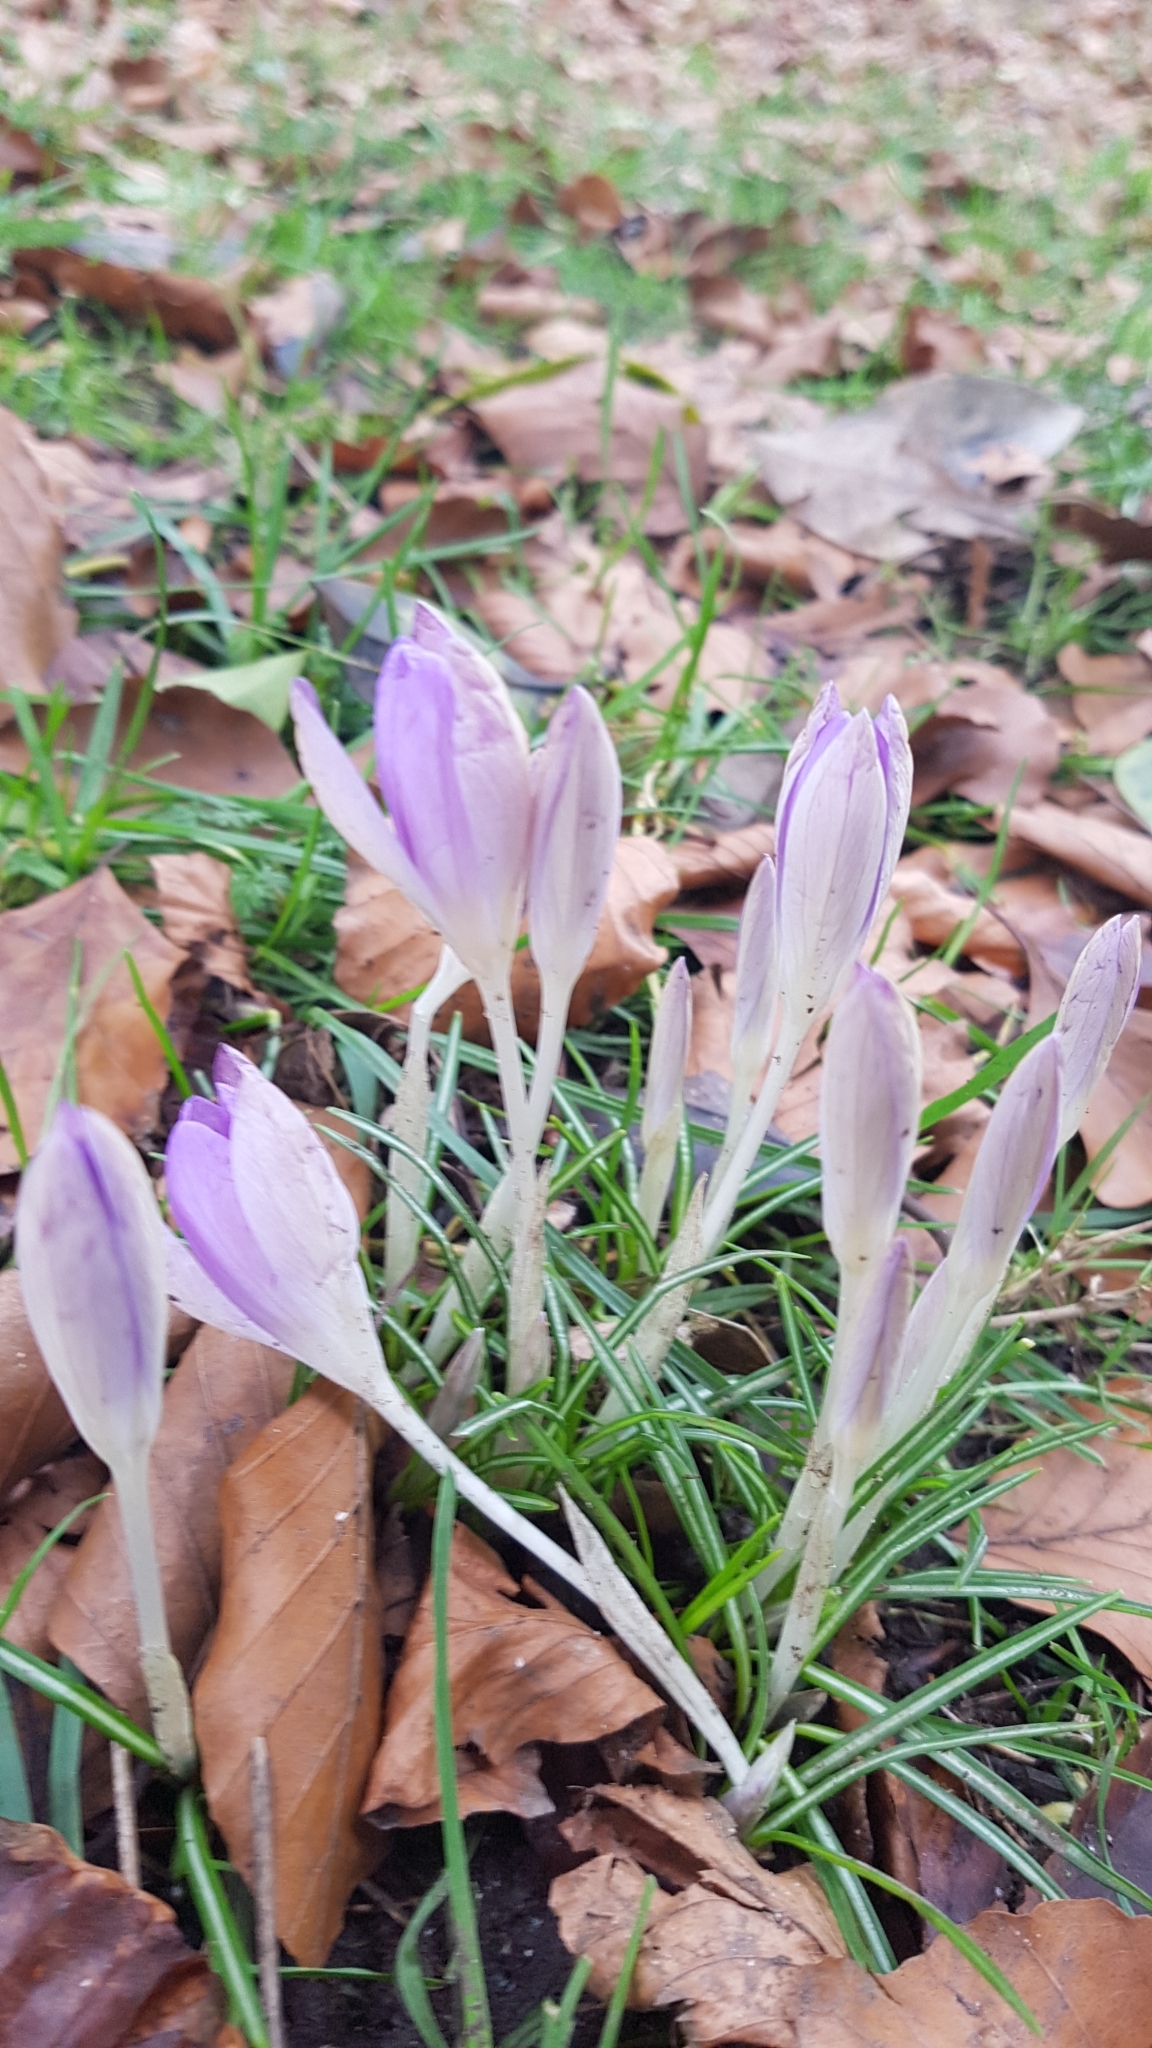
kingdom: Plantae
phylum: Tracheophyta
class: Liliopsida
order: Asparagales
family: Iridaceae
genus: Crocus
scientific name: Crocus tommasinianus
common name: Early crocus
